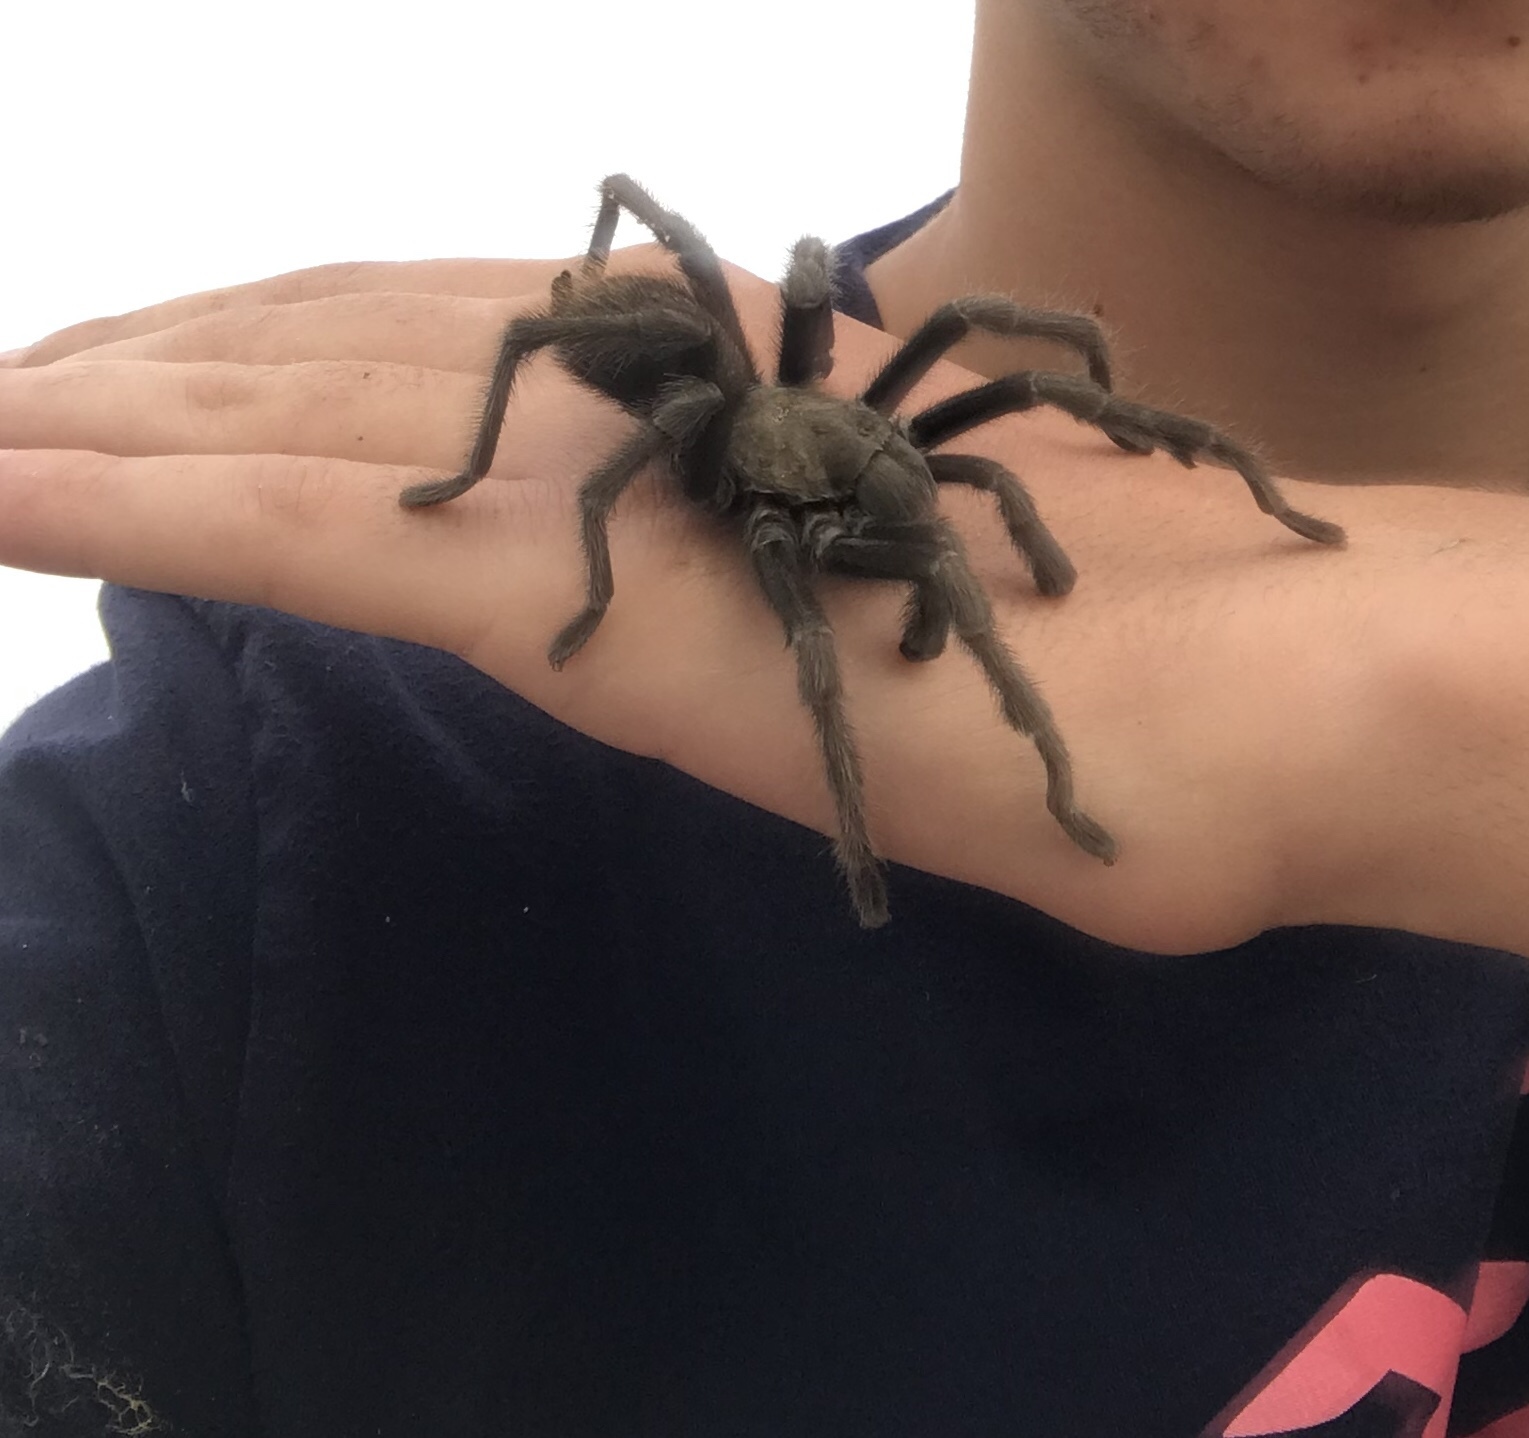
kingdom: Animalia
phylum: Arthropoda
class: Arachnida
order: Araneae
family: Theraphosidae
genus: Aphonopelma
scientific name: Aphonopelma iodius
